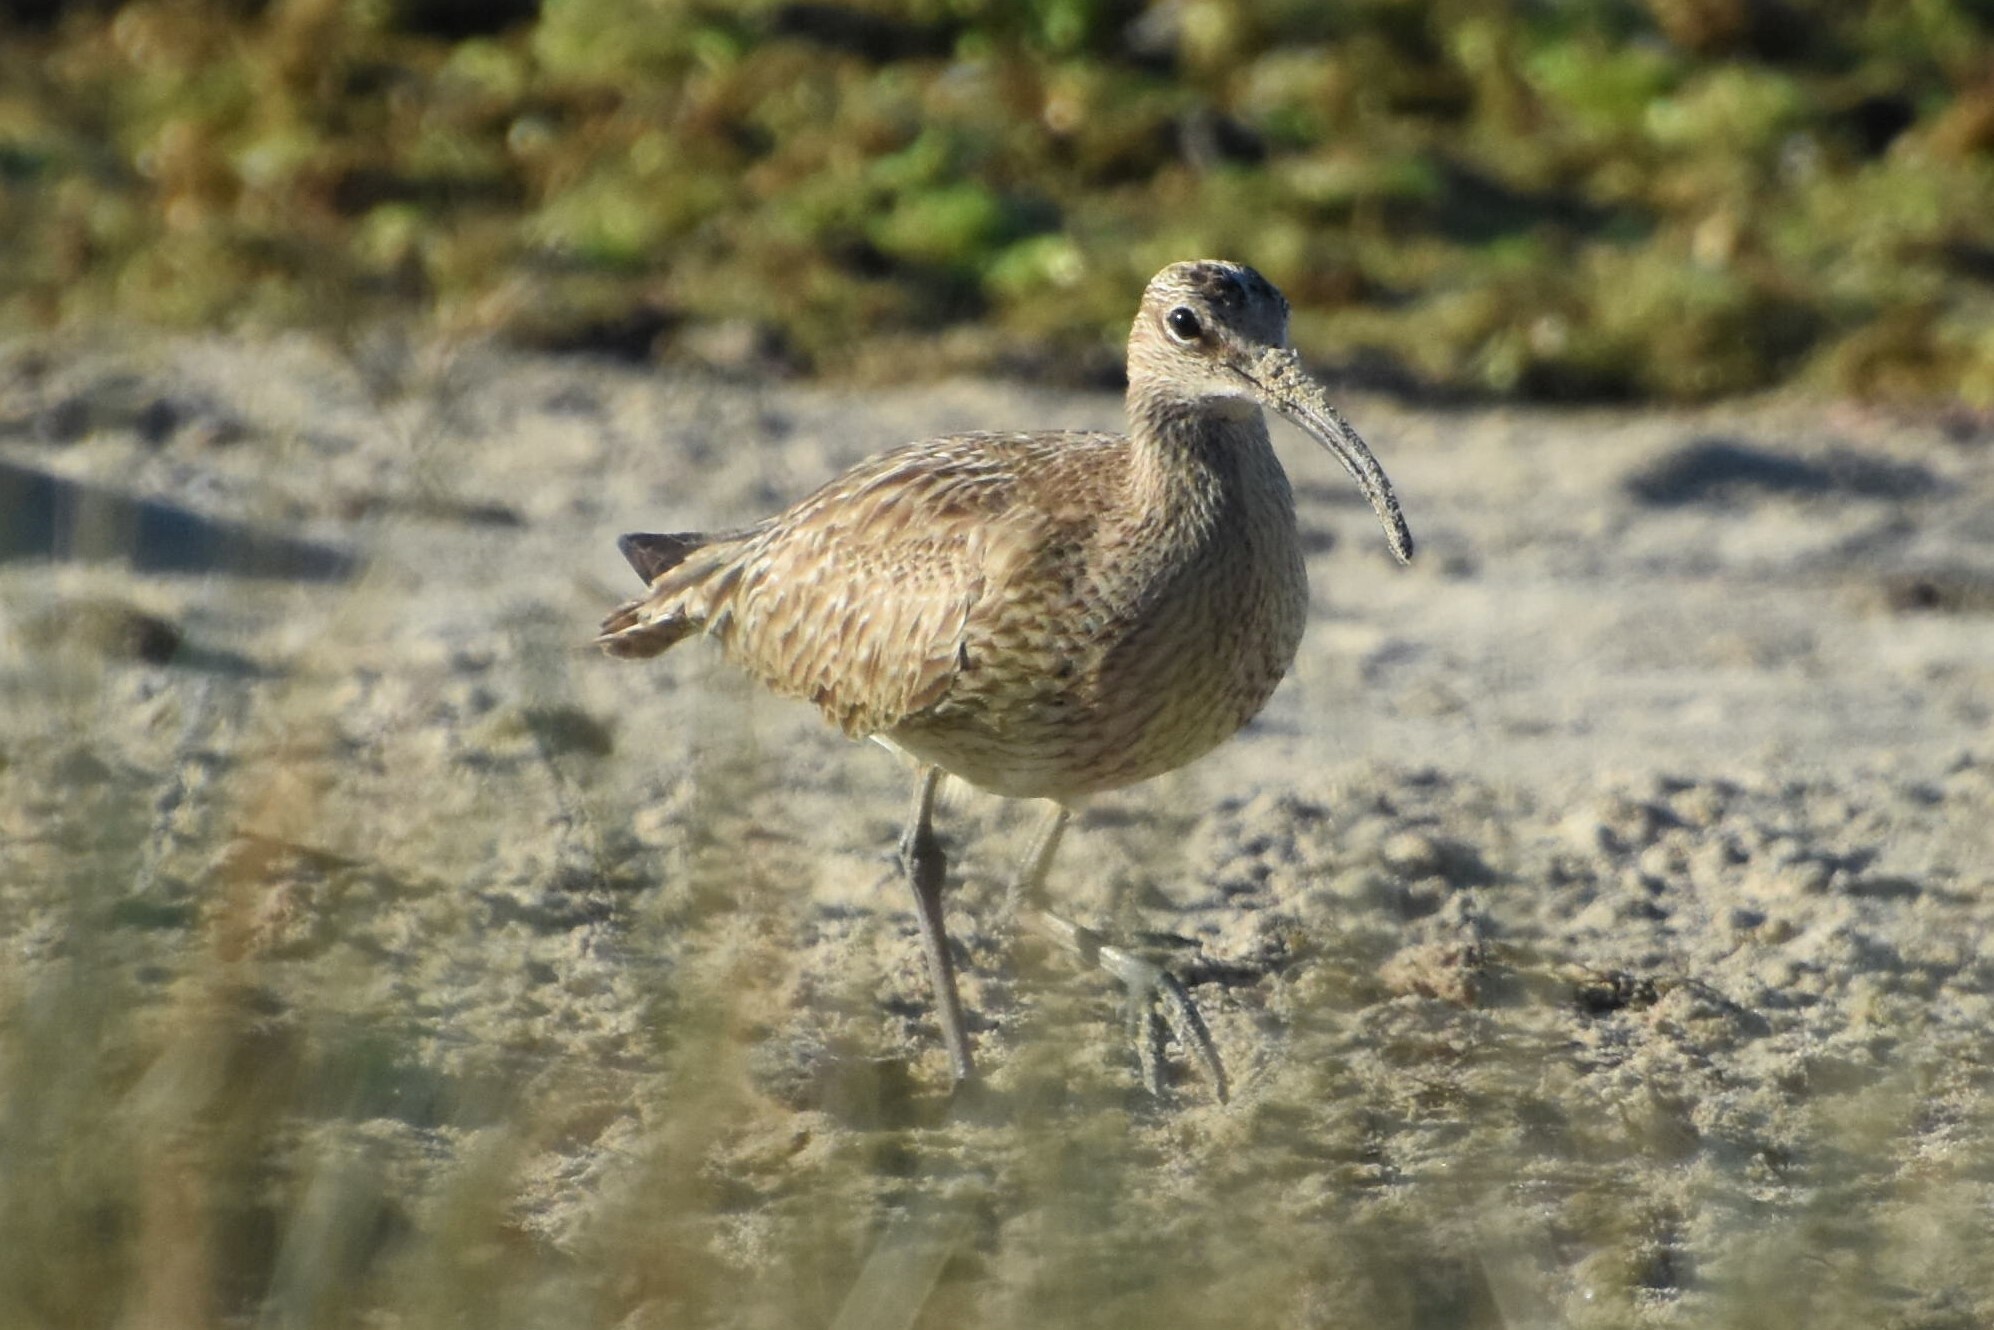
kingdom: Animalia
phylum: Chordata
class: Aves
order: Charadriiformes
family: Scolopacidae
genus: Numenius
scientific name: Numenius phaeopus
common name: Whimbrel
